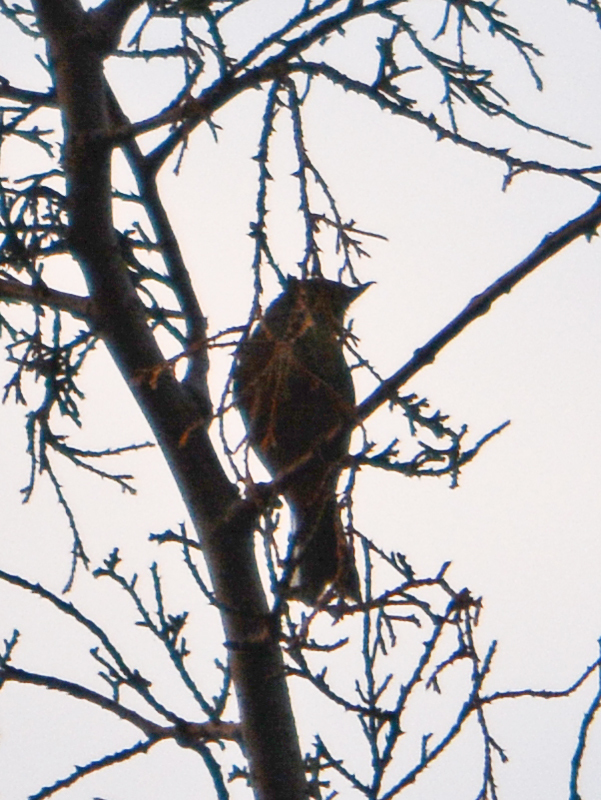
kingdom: Animalia
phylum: Chordata
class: Aves
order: Passeriformes
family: Thraupidae
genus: Diglossa
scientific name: Diglossa baritula
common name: Cinnamon-bellied flowerpiercer
